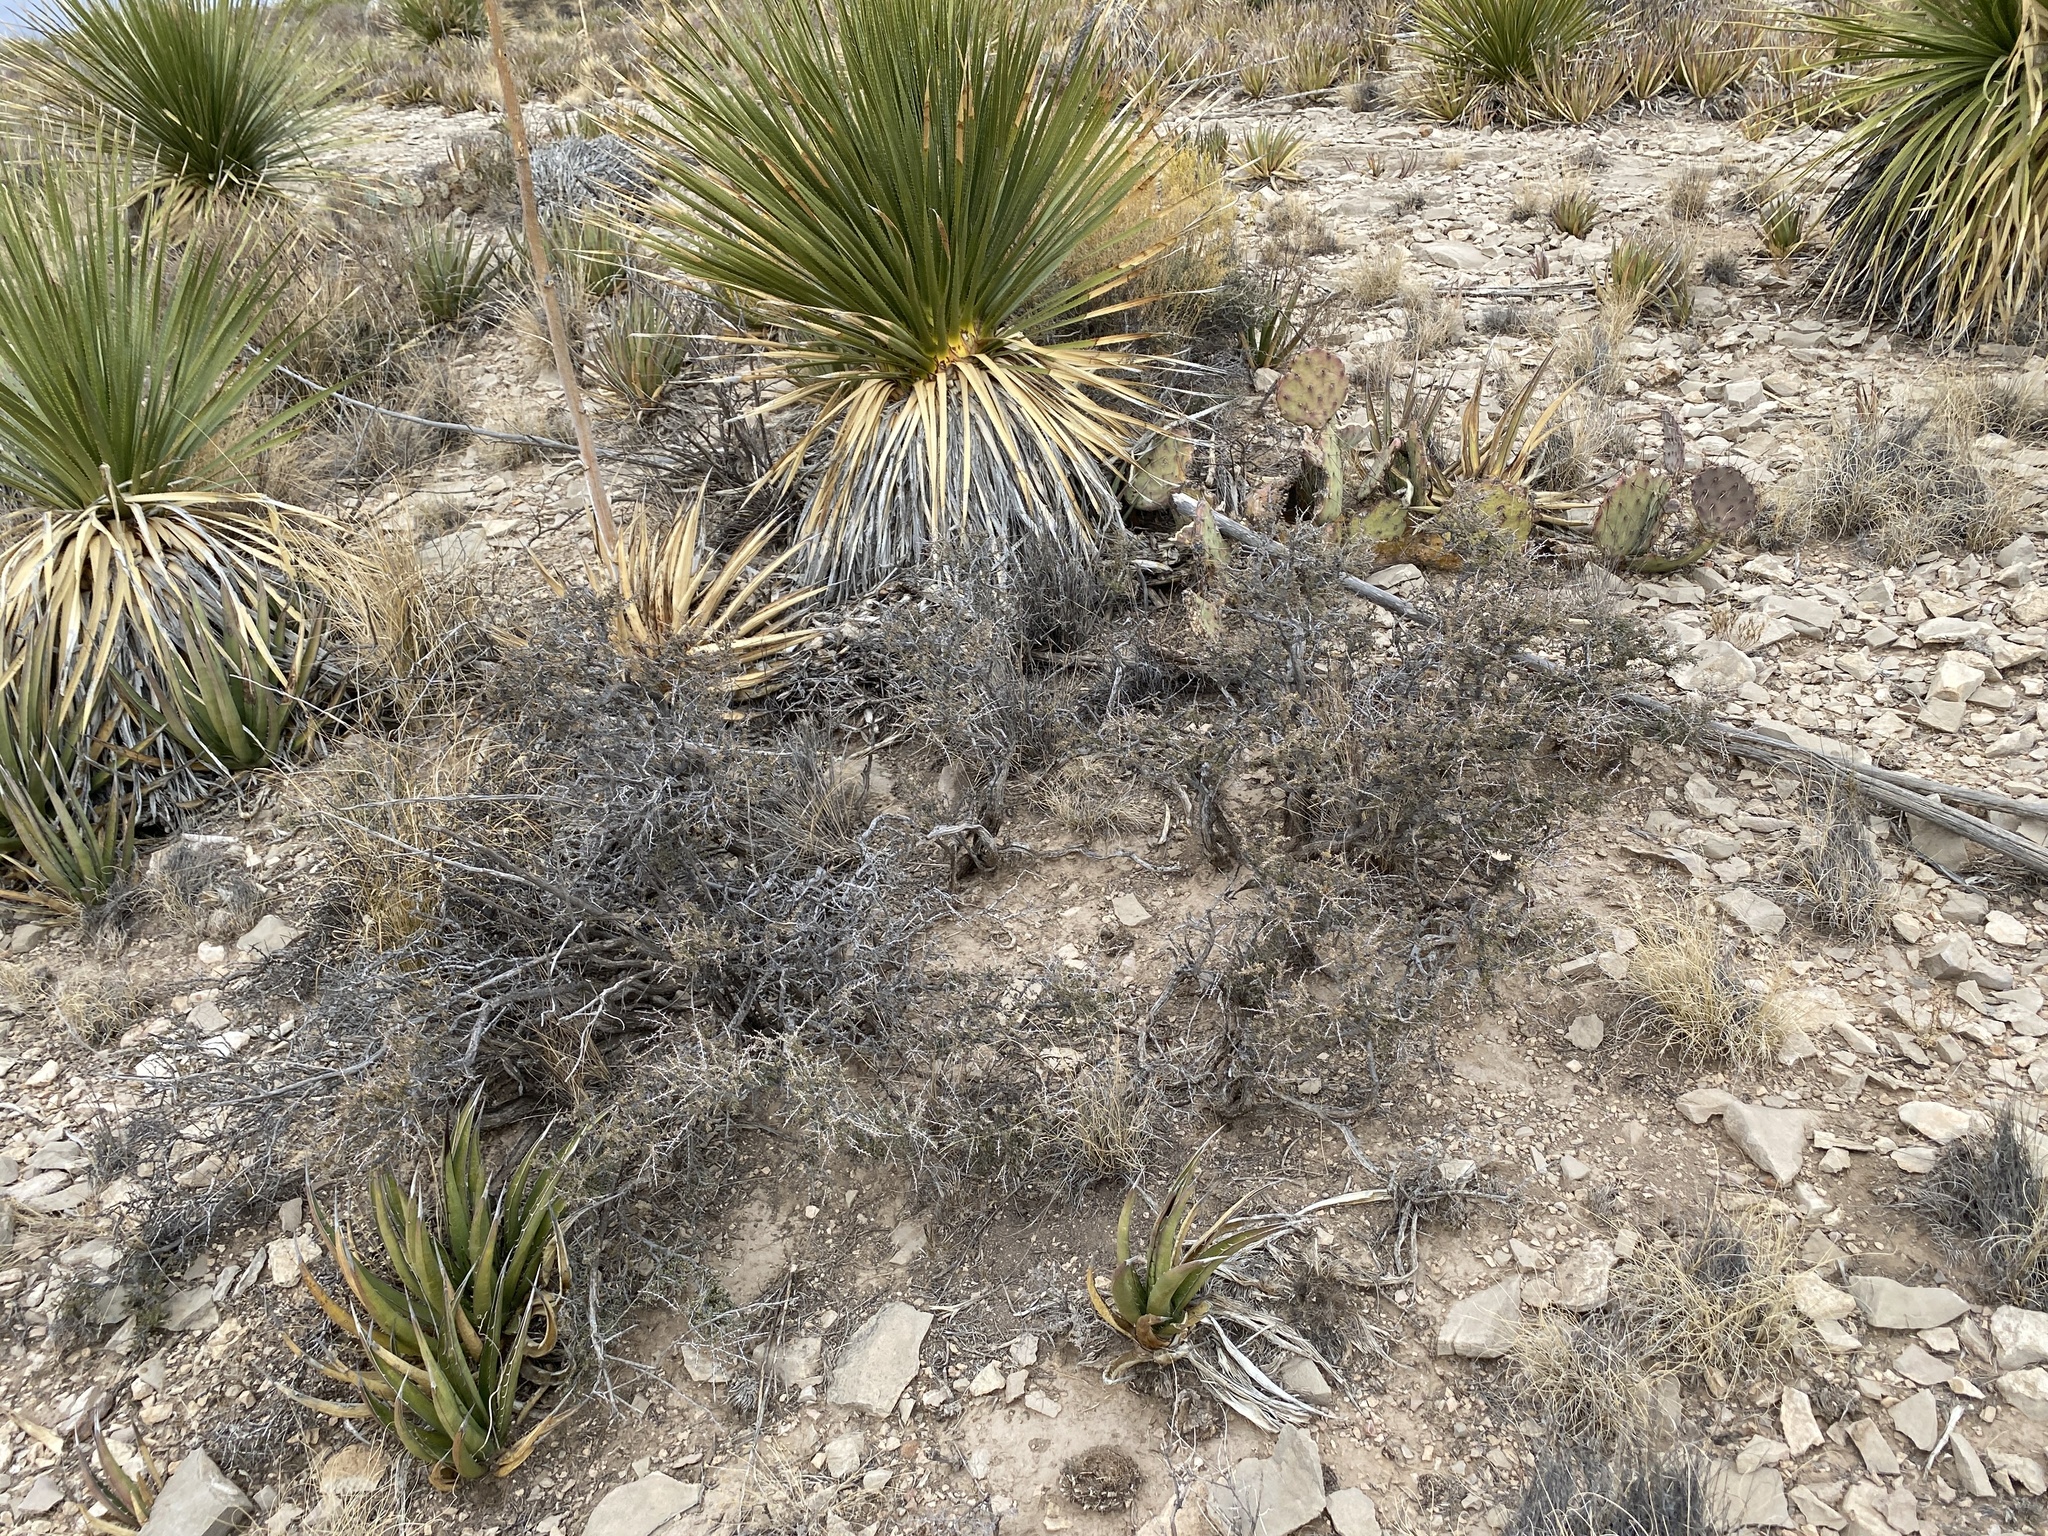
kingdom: Plantae
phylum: Tracheophyta
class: Magnoliopsida
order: Rosales
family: Rhamnaceae
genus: Condalia
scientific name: Condalia ericoides
